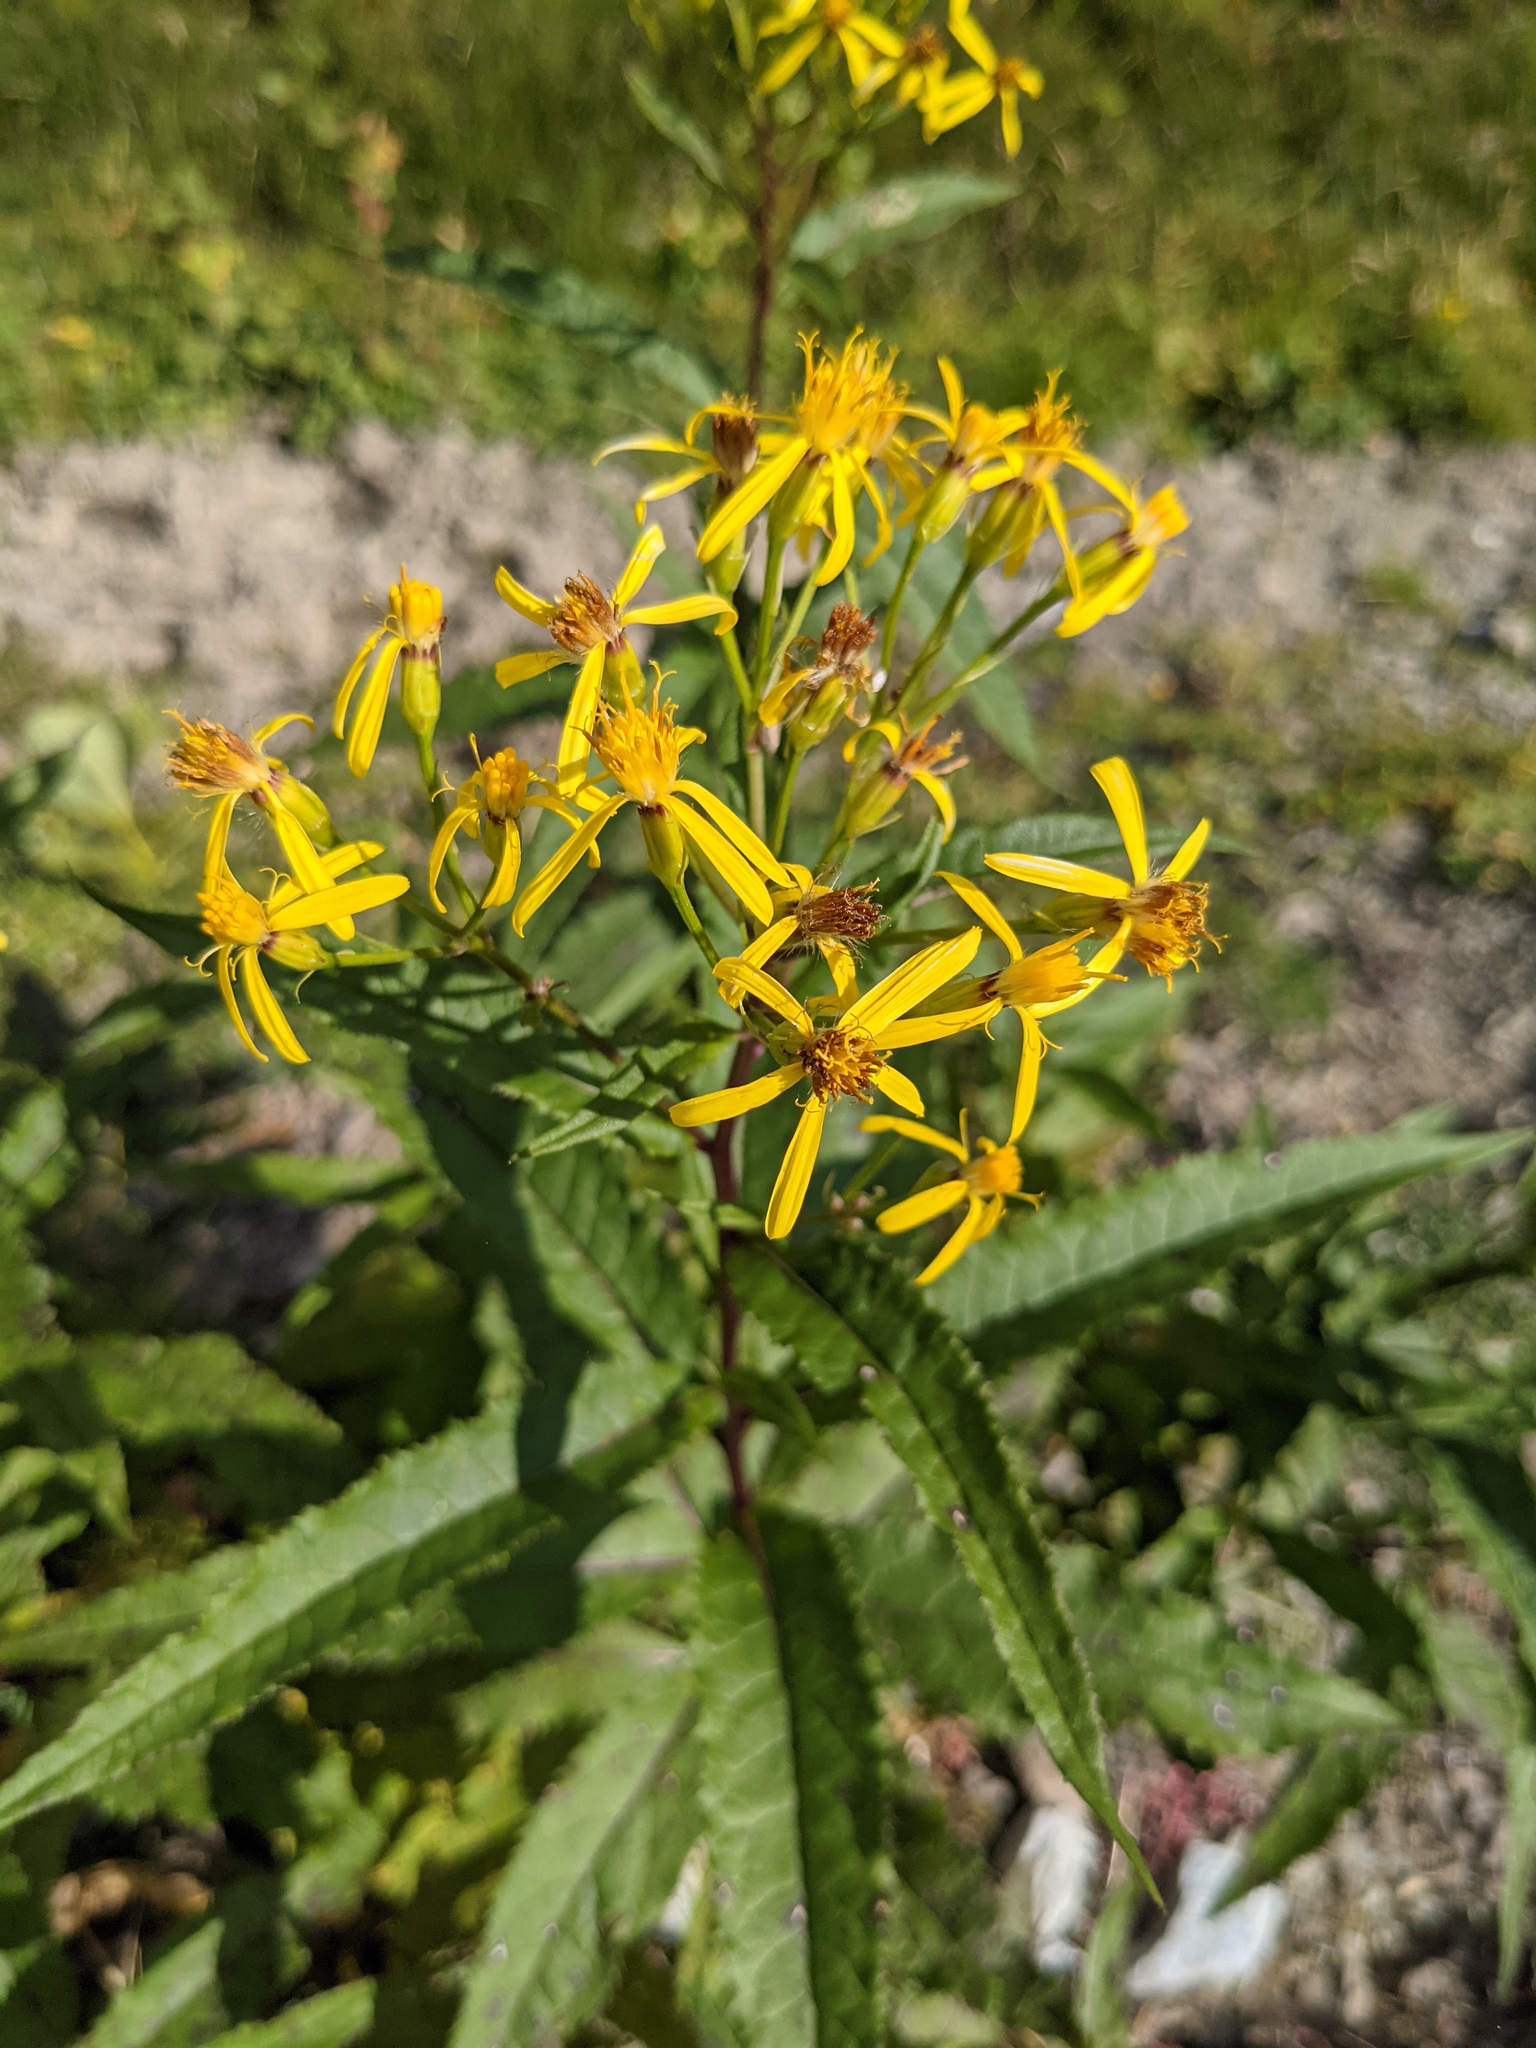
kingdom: Plantae
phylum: Tracheophyta
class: Magnoliopsida
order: Asterales
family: Asteraceae
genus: Senecio
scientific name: Senecio ovatus
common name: Wood ragwort
